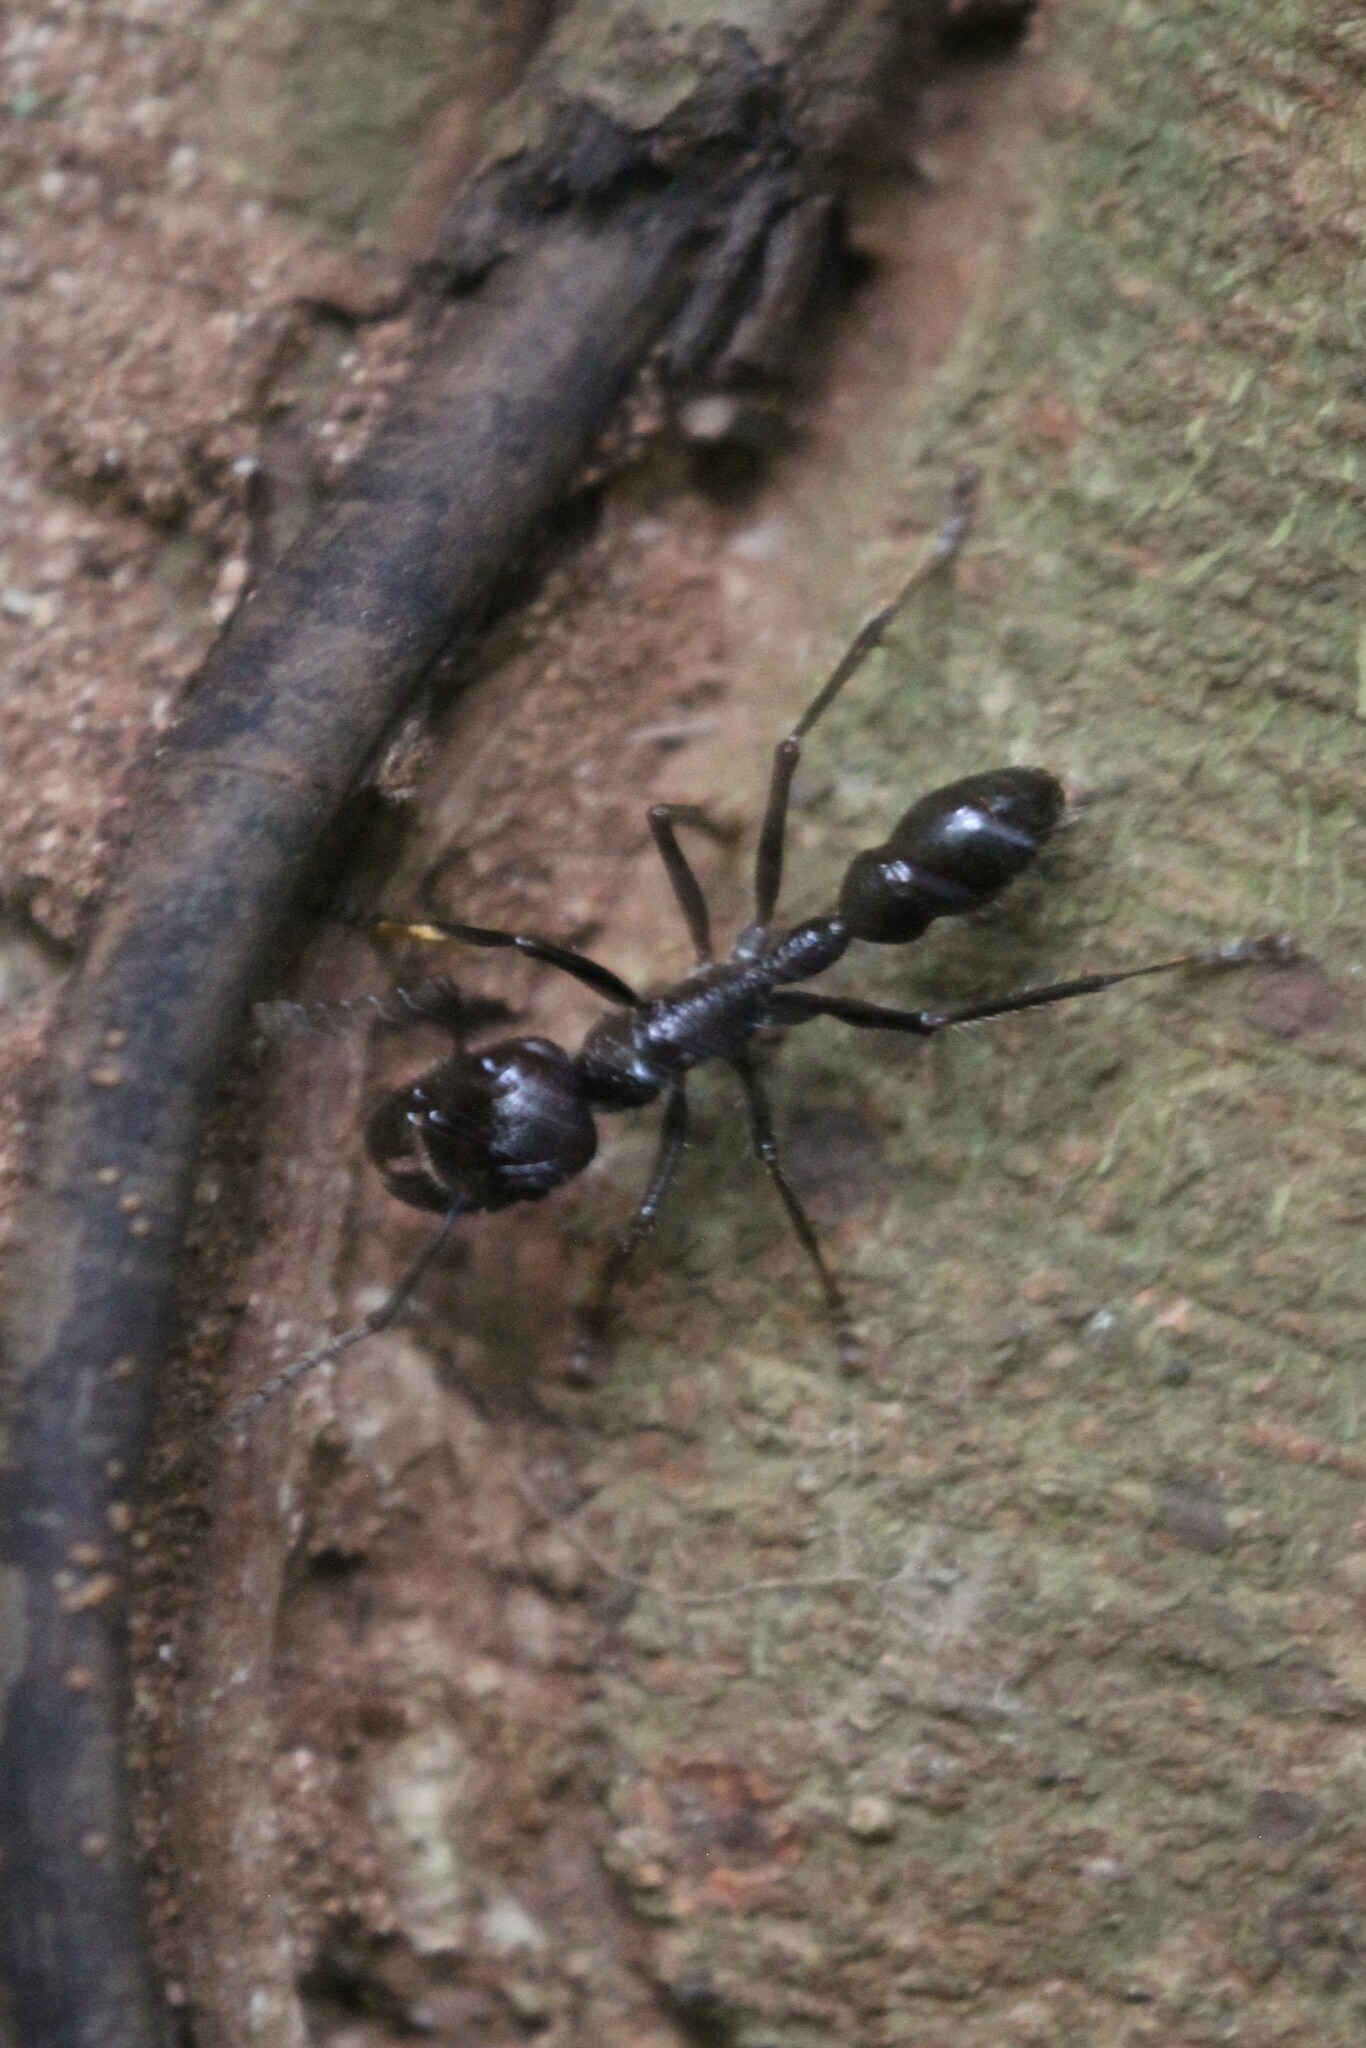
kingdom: Animalia
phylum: Arthropoda
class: Insecta
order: Hymenoptera
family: Formicidae
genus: Paraponera
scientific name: Paraponera clavata
